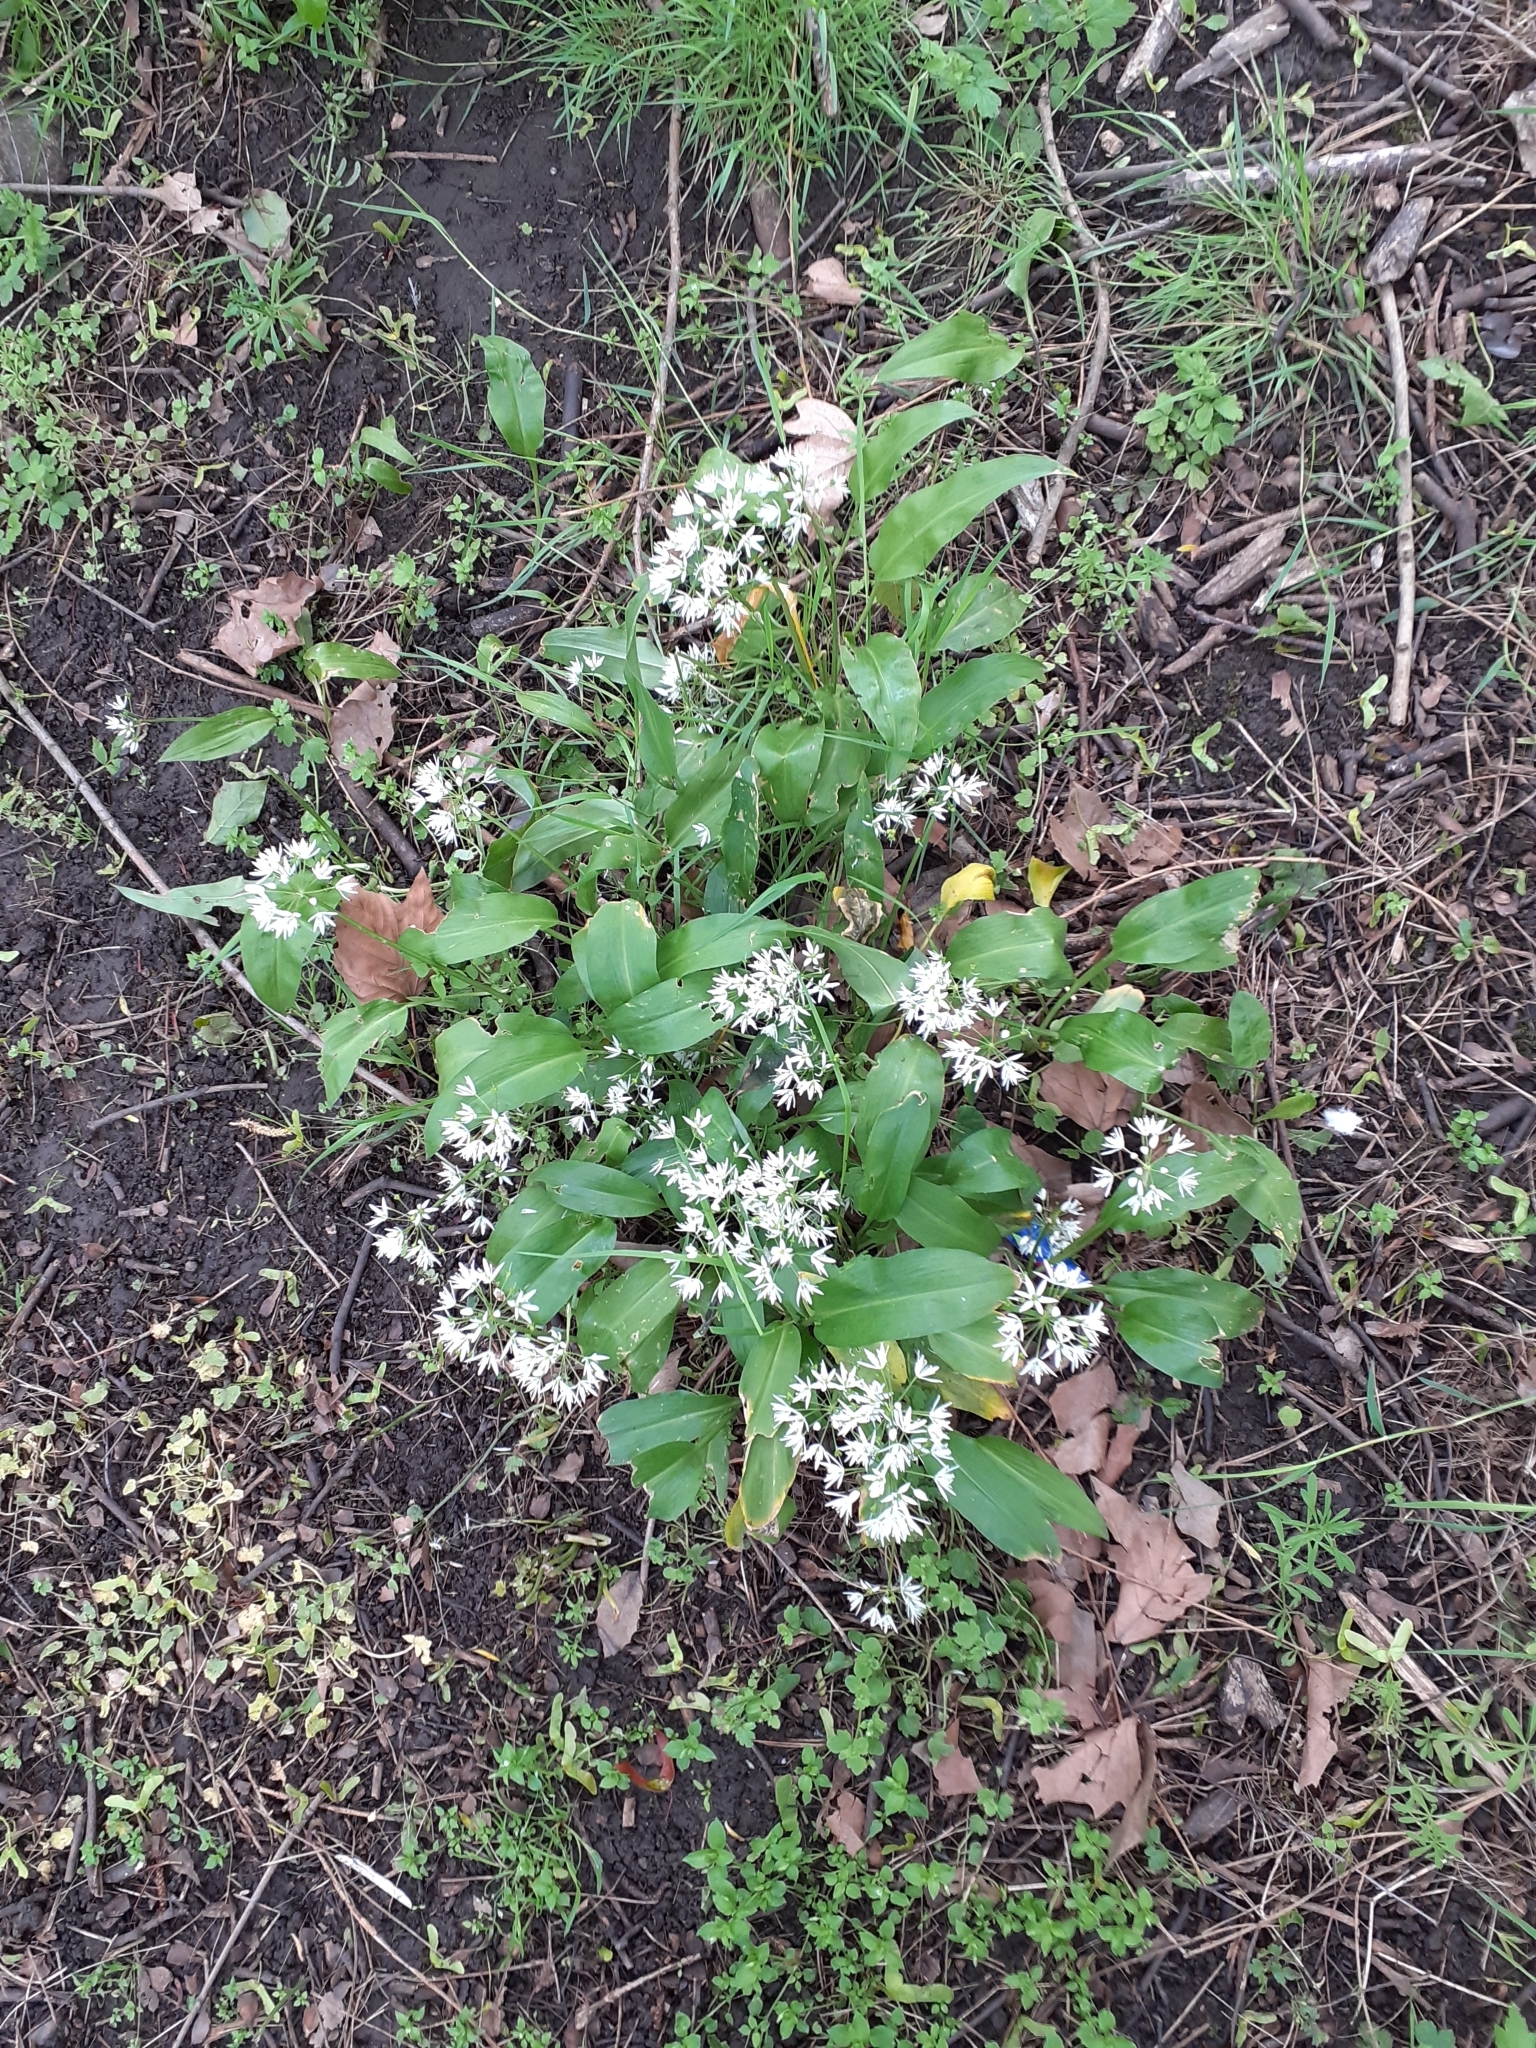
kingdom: Plantae
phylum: Tracheophyta
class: Liliopsida
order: Asparagales
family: Amaryllidaceae
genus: Allium
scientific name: Allium ursinum
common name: Ramsons
